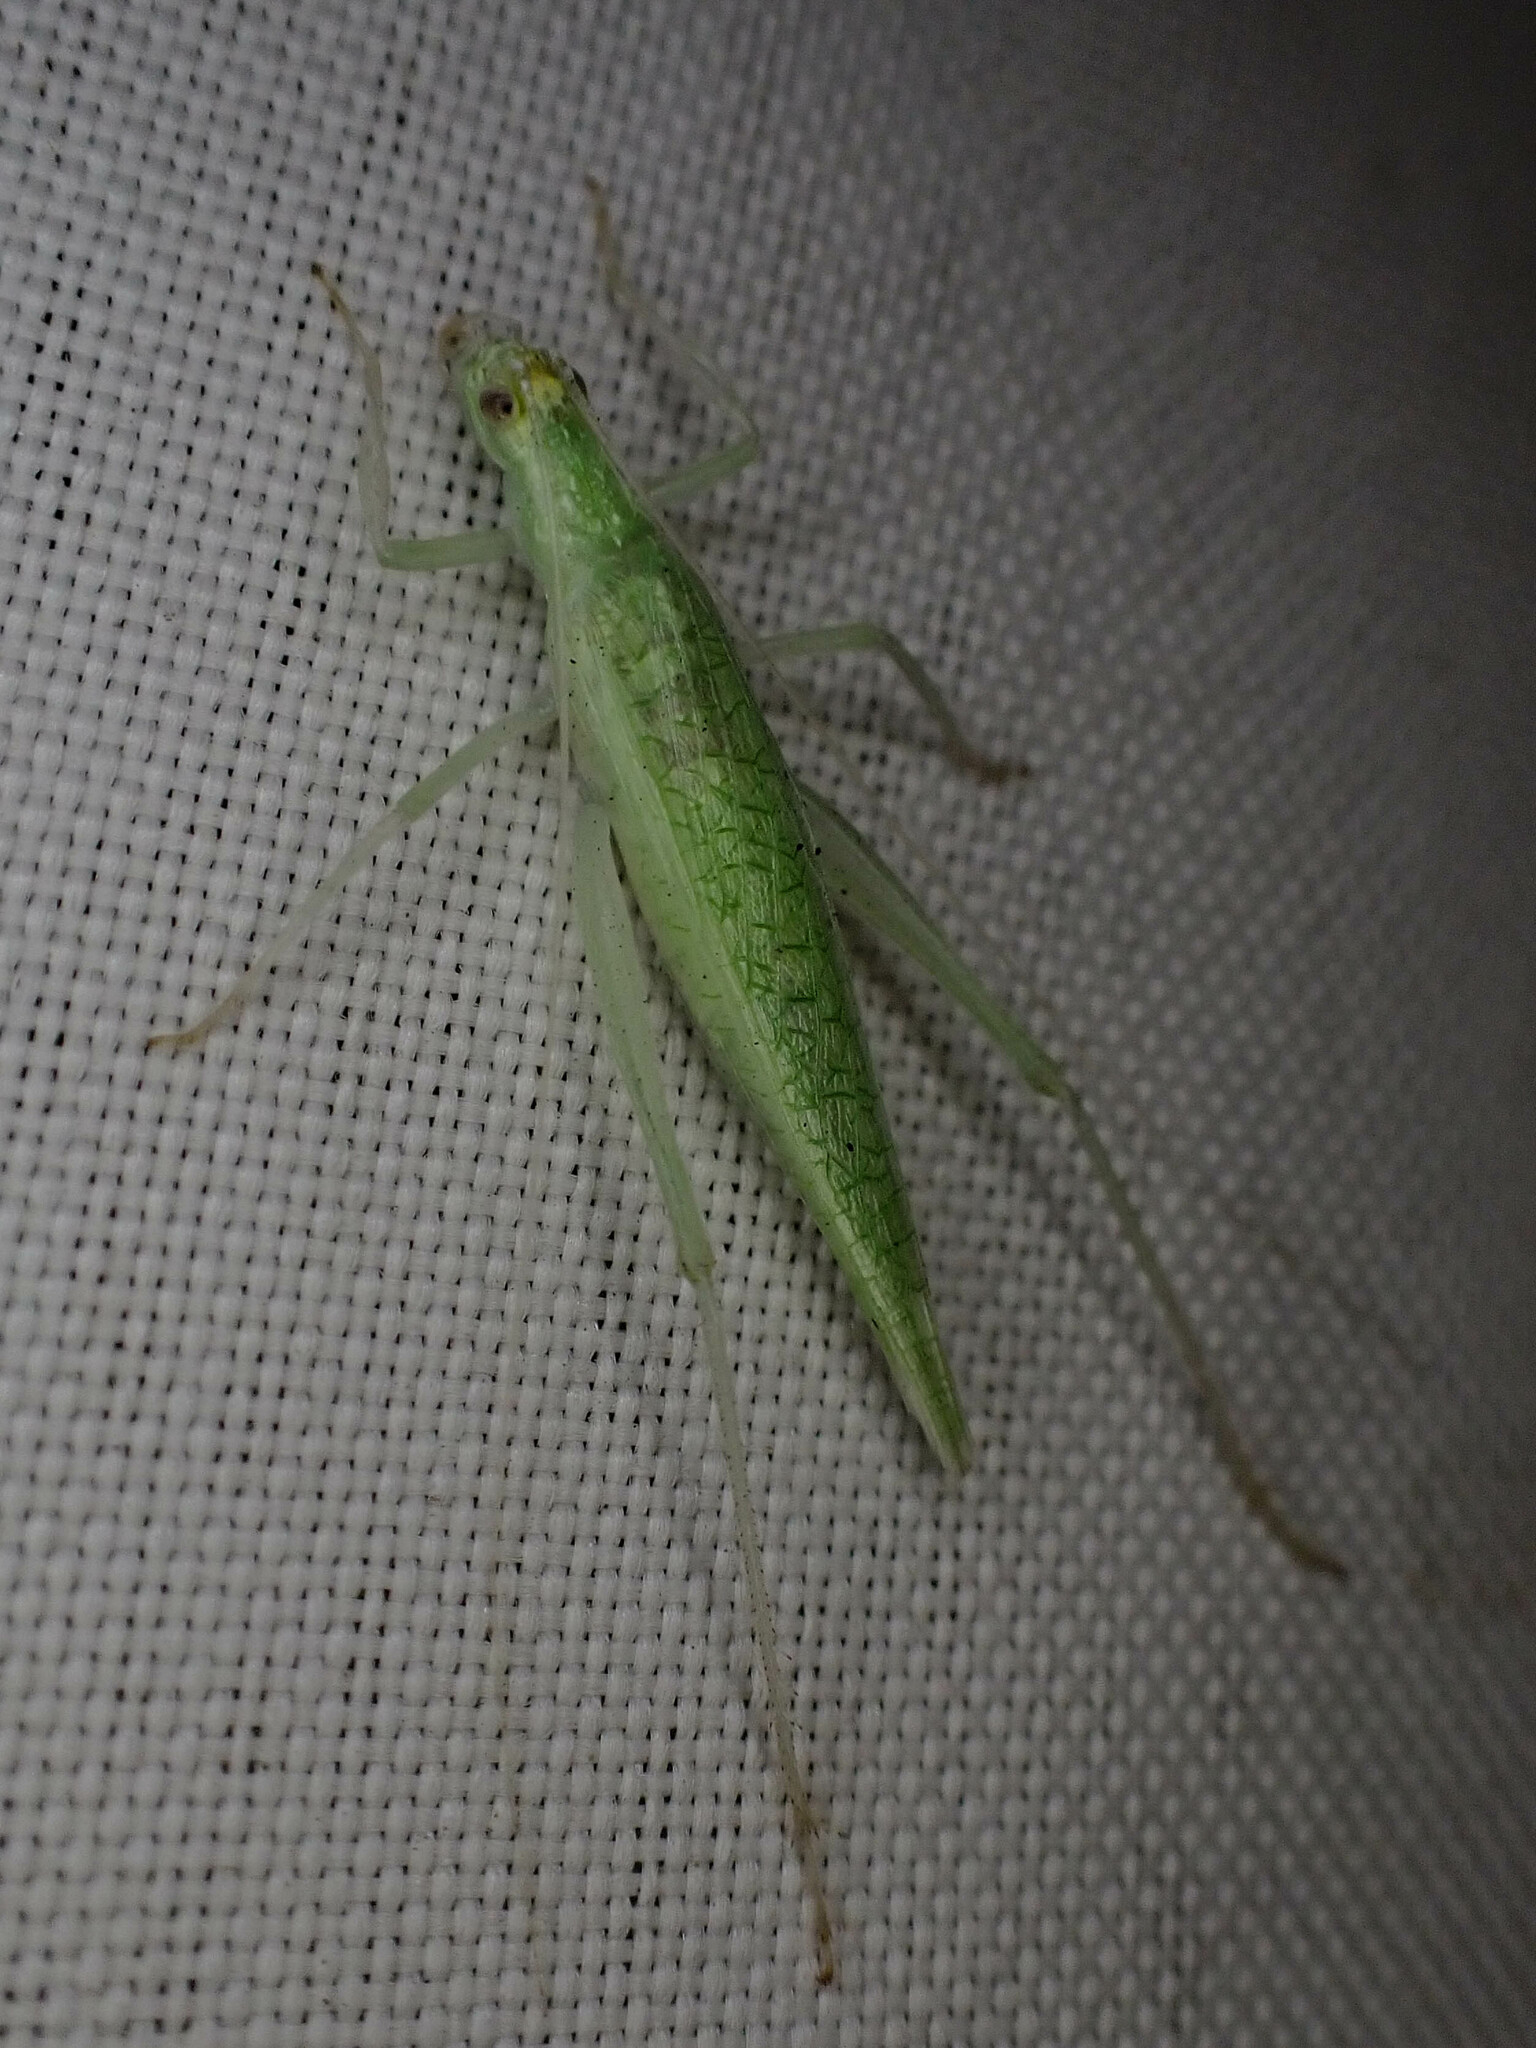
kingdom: Animalia
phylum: Arthropoda
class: Insecta
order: Orthoptera
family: Gryllidae
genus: Oecanthus
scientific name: Oecanthus rileyi
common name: Riley's tree cricket
